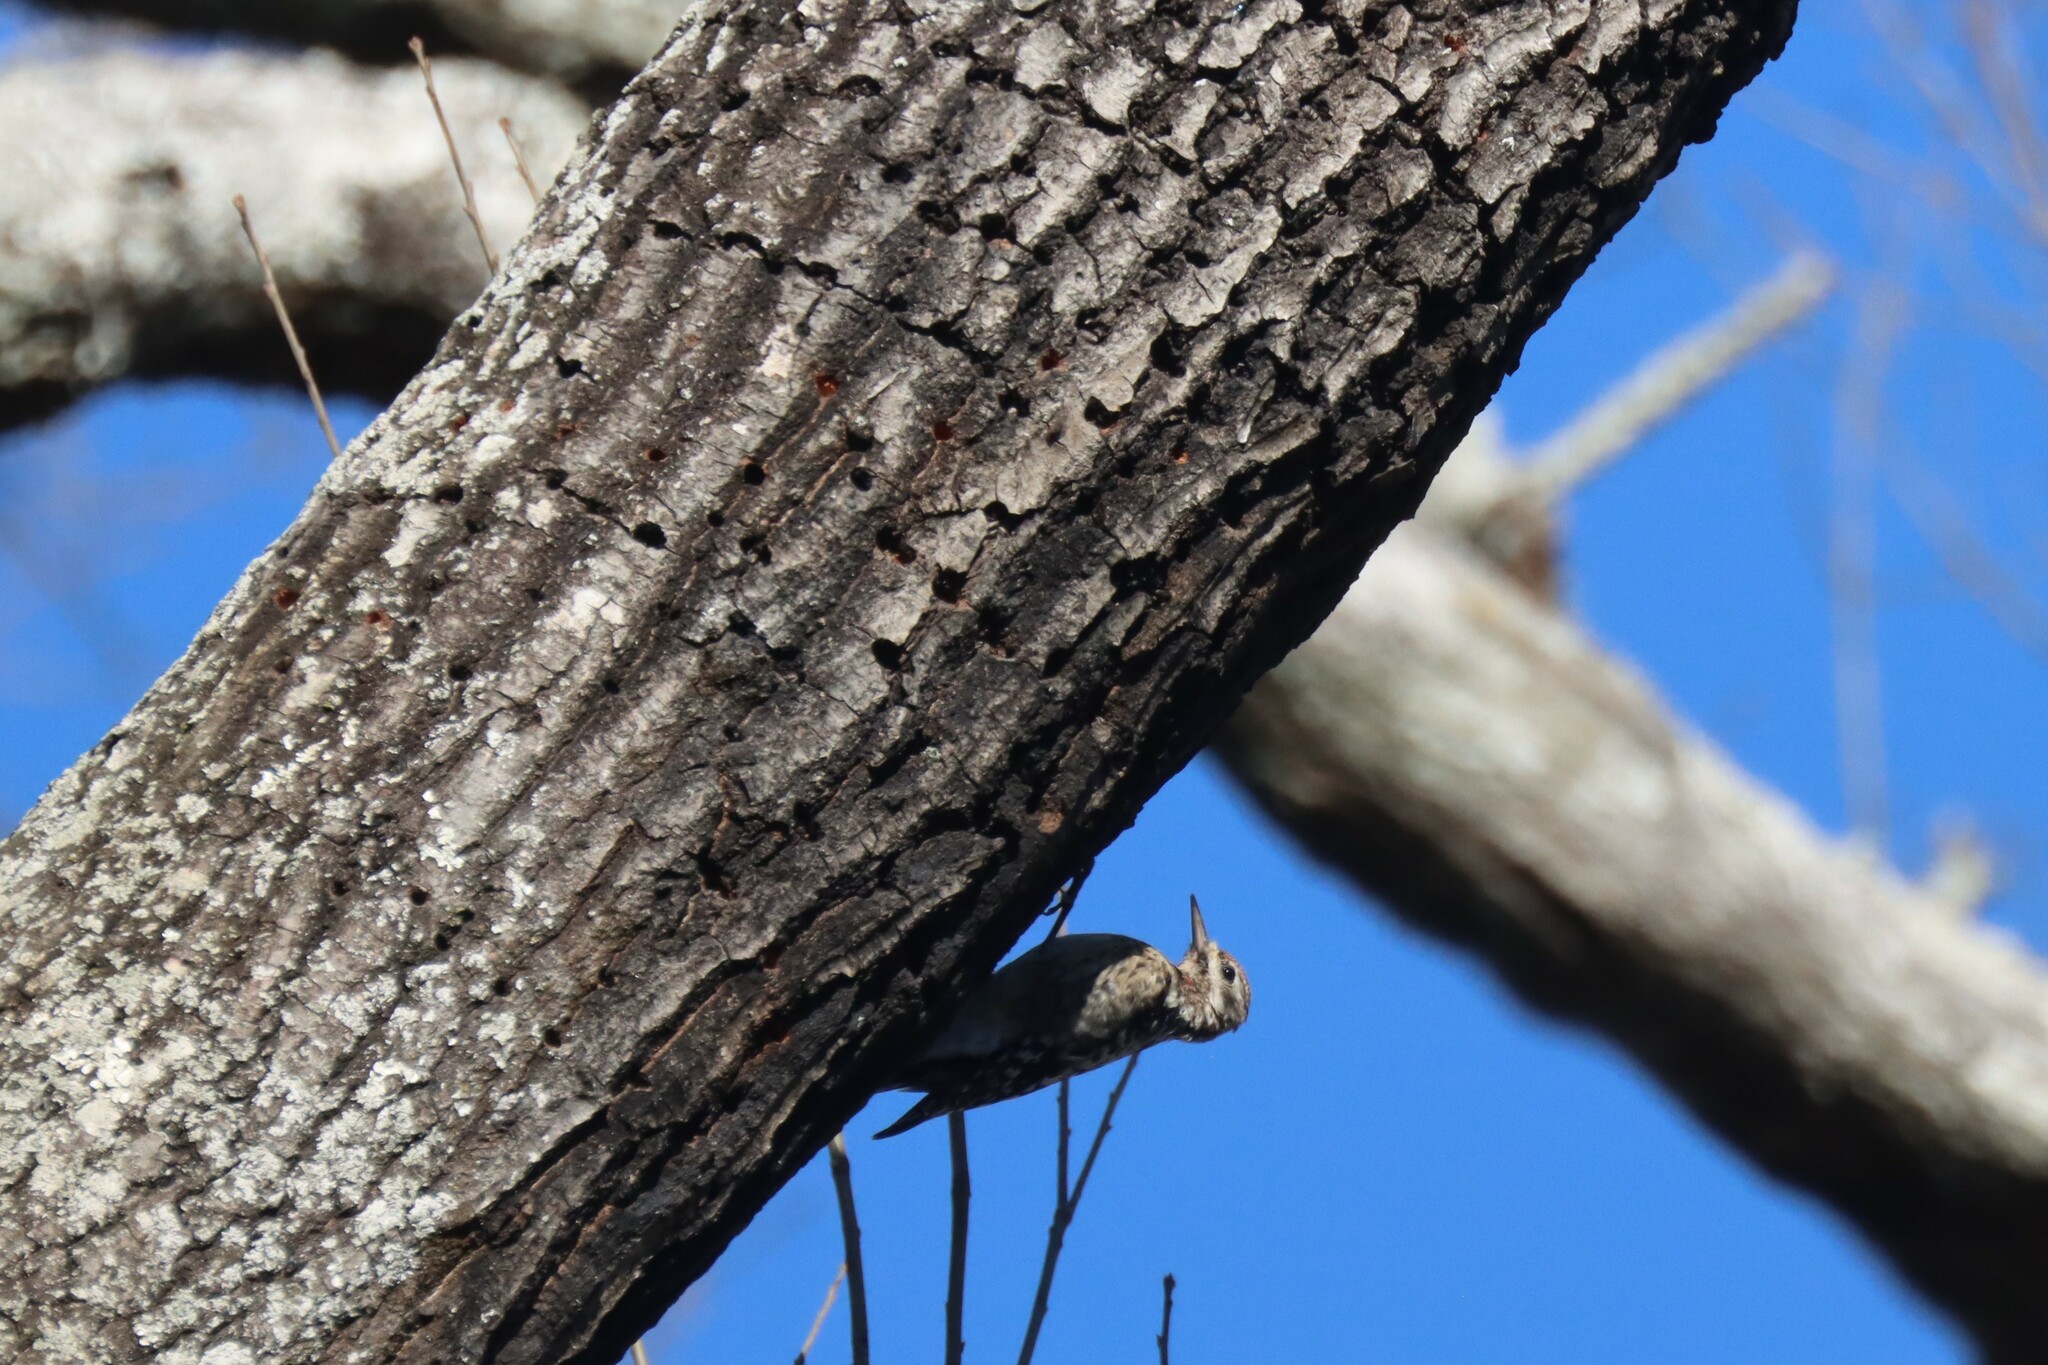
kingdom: Animalia
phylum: Chordata
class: Aves
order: Piciformes
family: Picidae
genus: Sphyrapicus
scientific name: Sphyrapicus varius
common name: Yellow-bellied sapsucker
